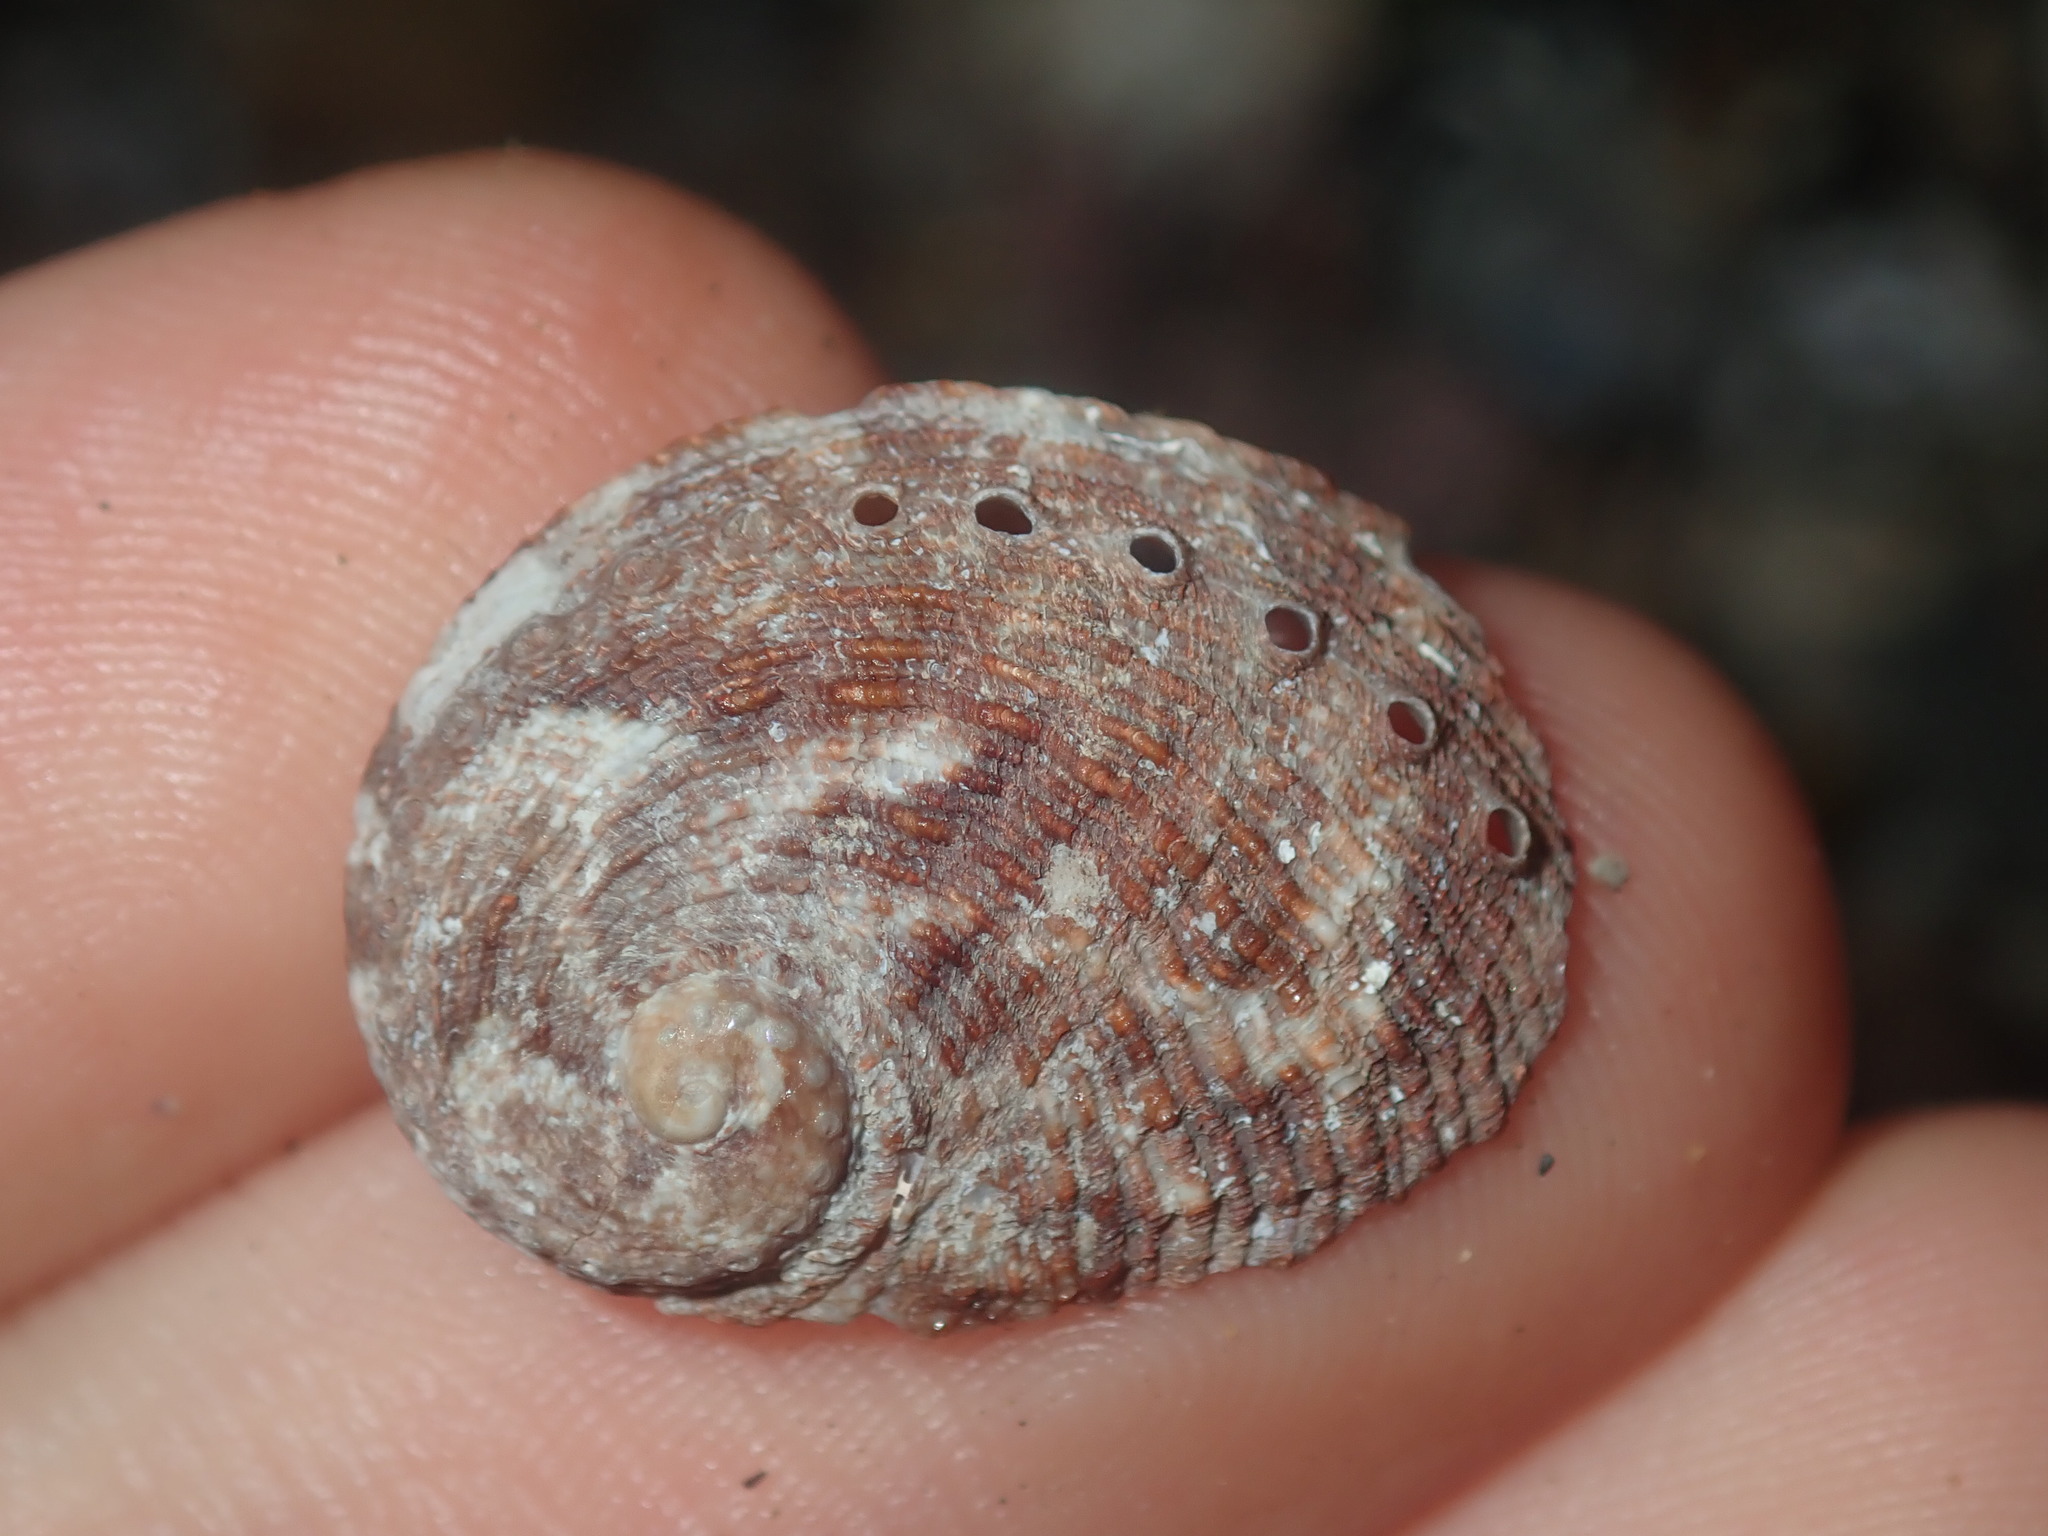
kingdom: Animalia
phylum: Mollusca
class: Gastropoda
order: Lepetellida
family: Haliotidae
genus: Haliotis
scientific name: Haliotis rubra
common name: Blacklip abalone
